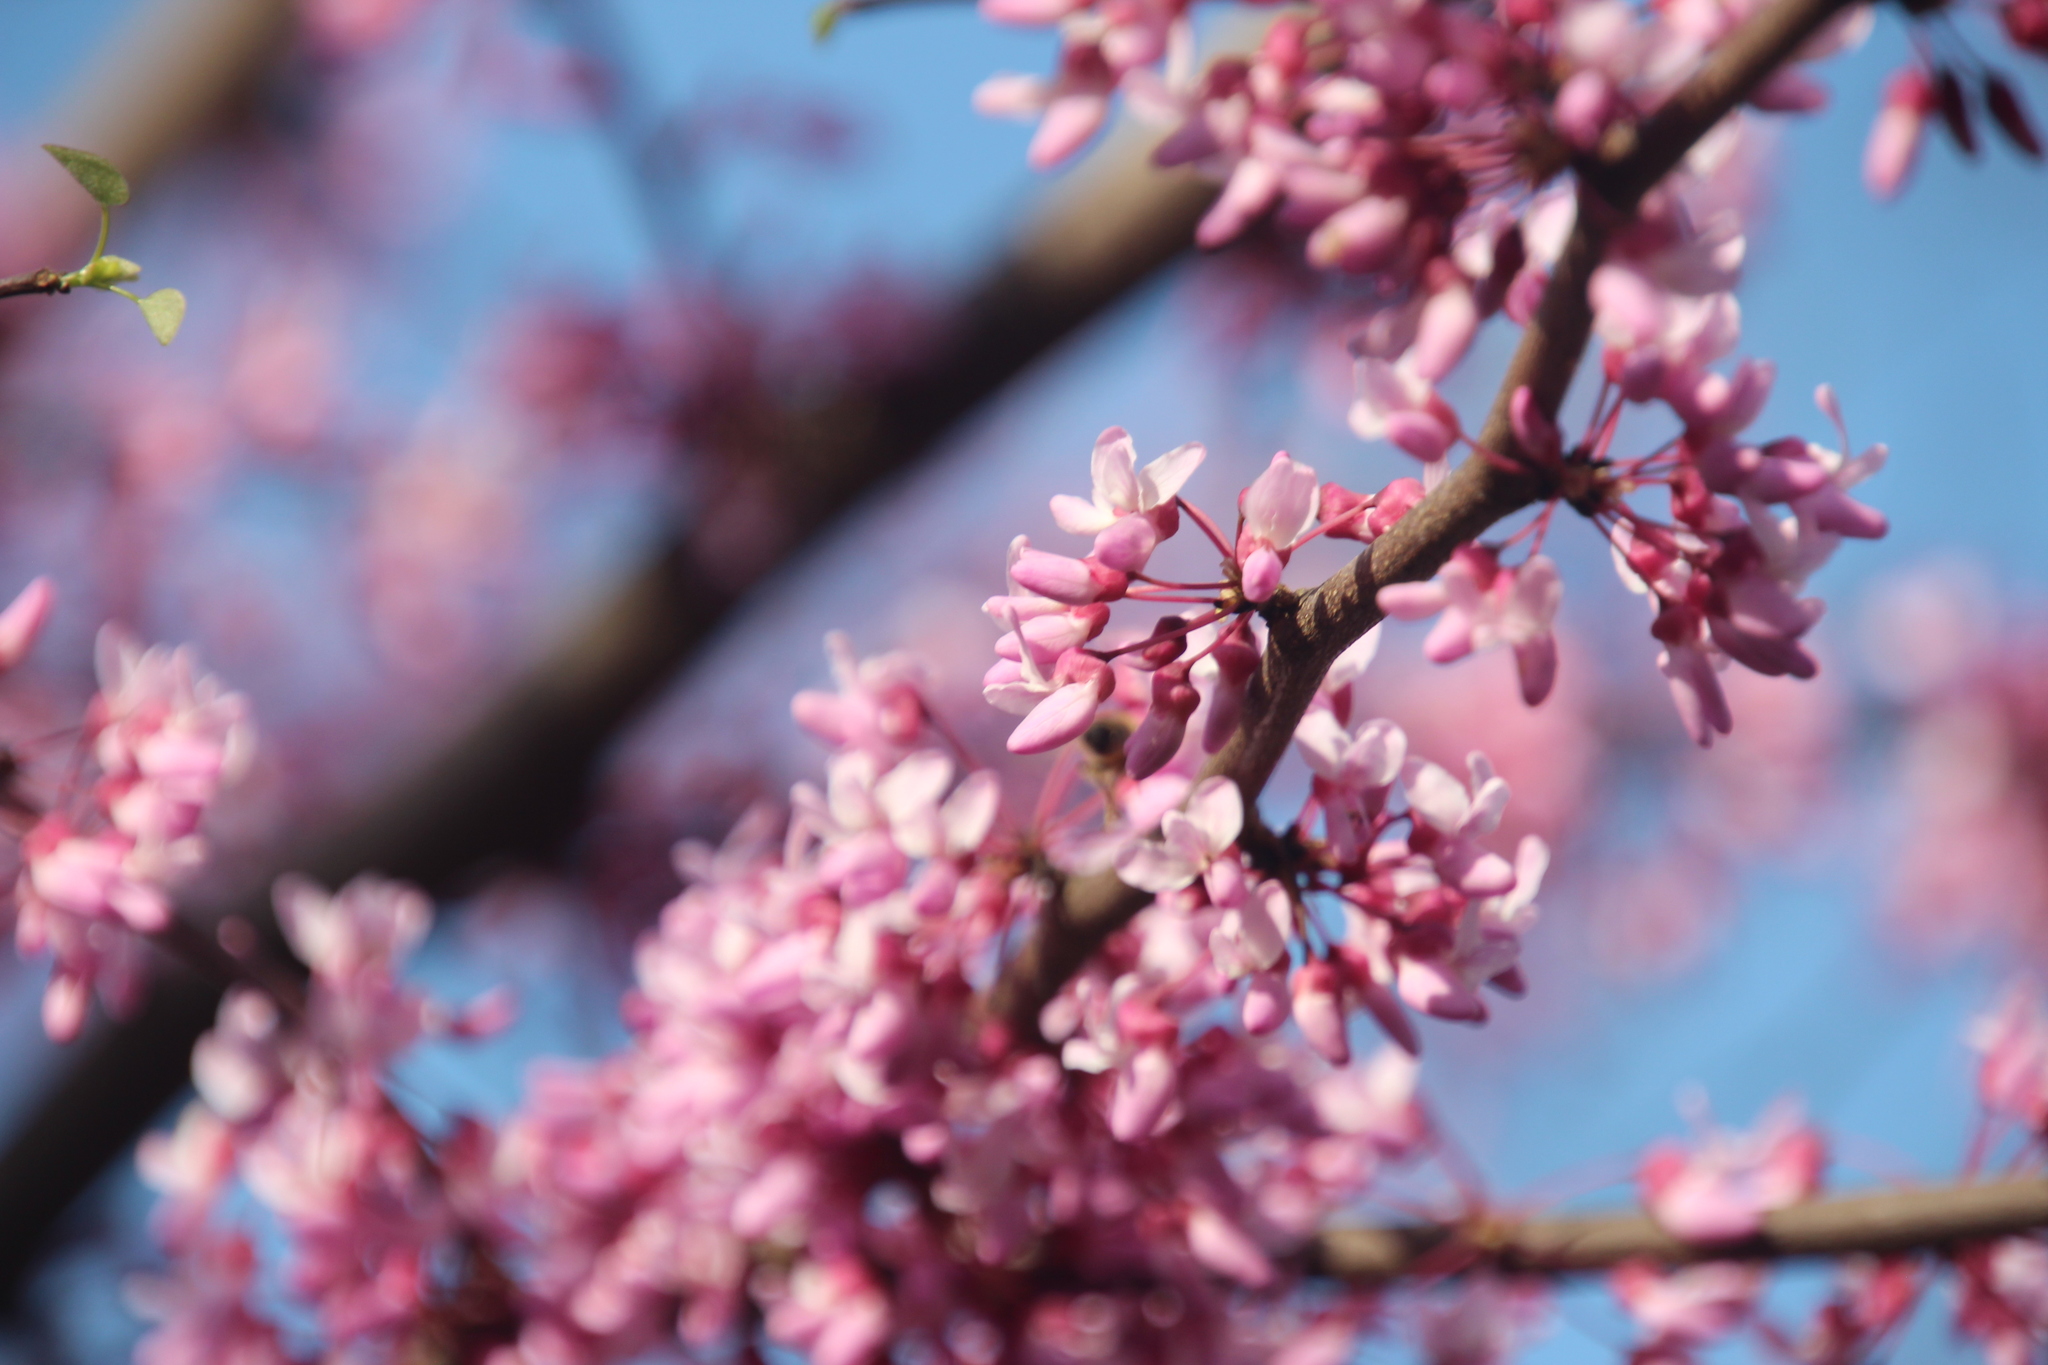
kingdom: Plantae
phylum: Tracheophyta
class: Magnoliopsida
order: Fabales
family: Fabaceae
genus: Cercis
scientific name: Cercis canadensis
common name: Eastern redbud
